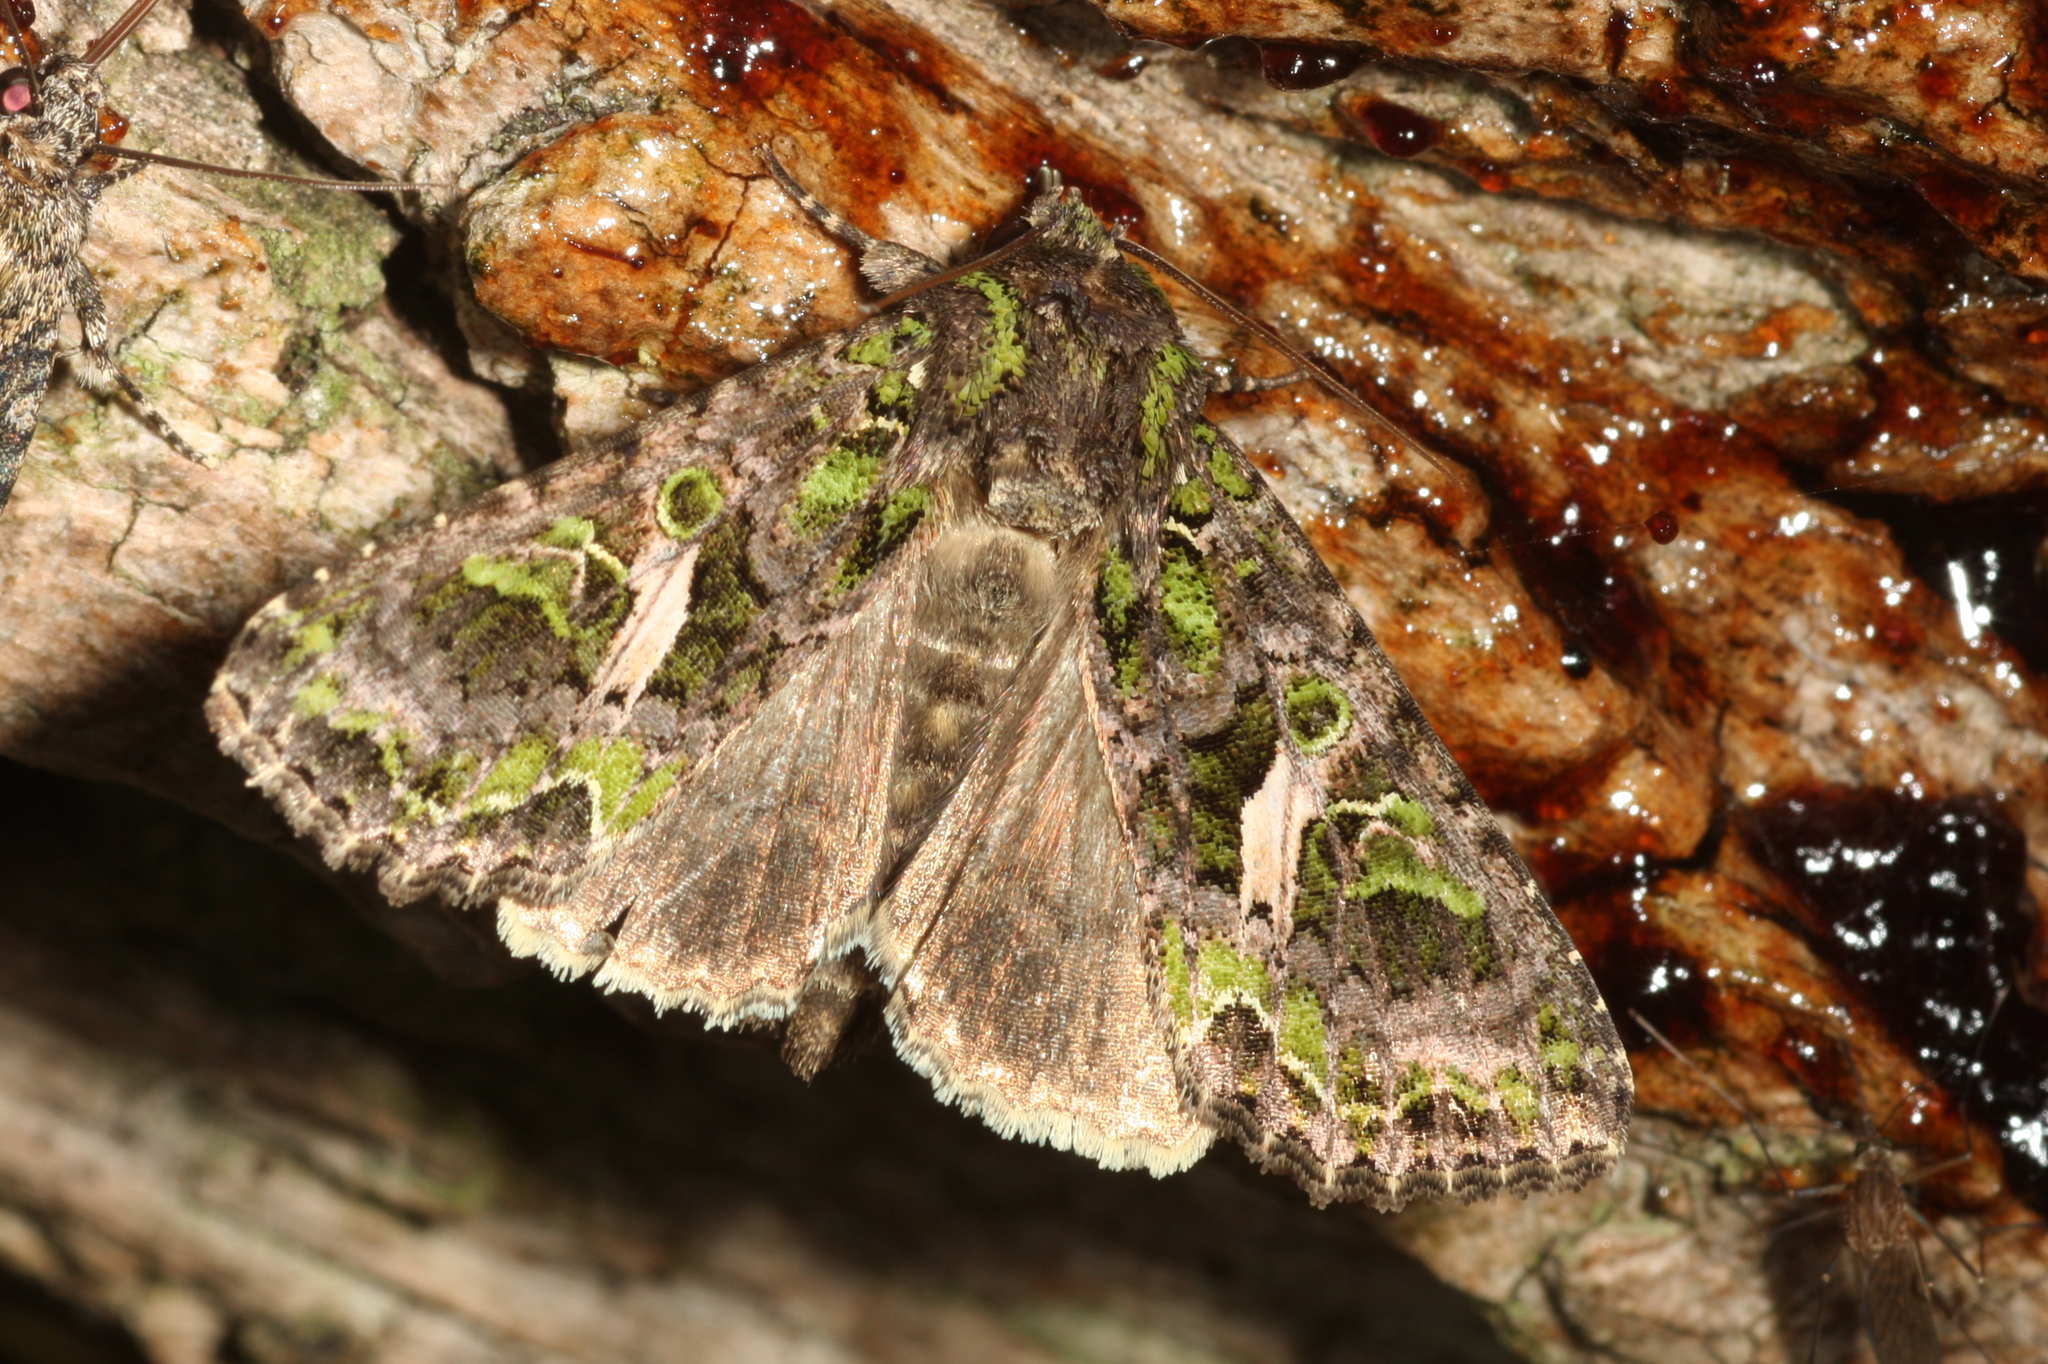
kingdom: Animalia
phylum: Arthropoda
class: Insecta
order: Lepidoptera
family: Noctuidae
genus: Trachea
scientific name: Trachea atriplicis
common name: Orache moth
